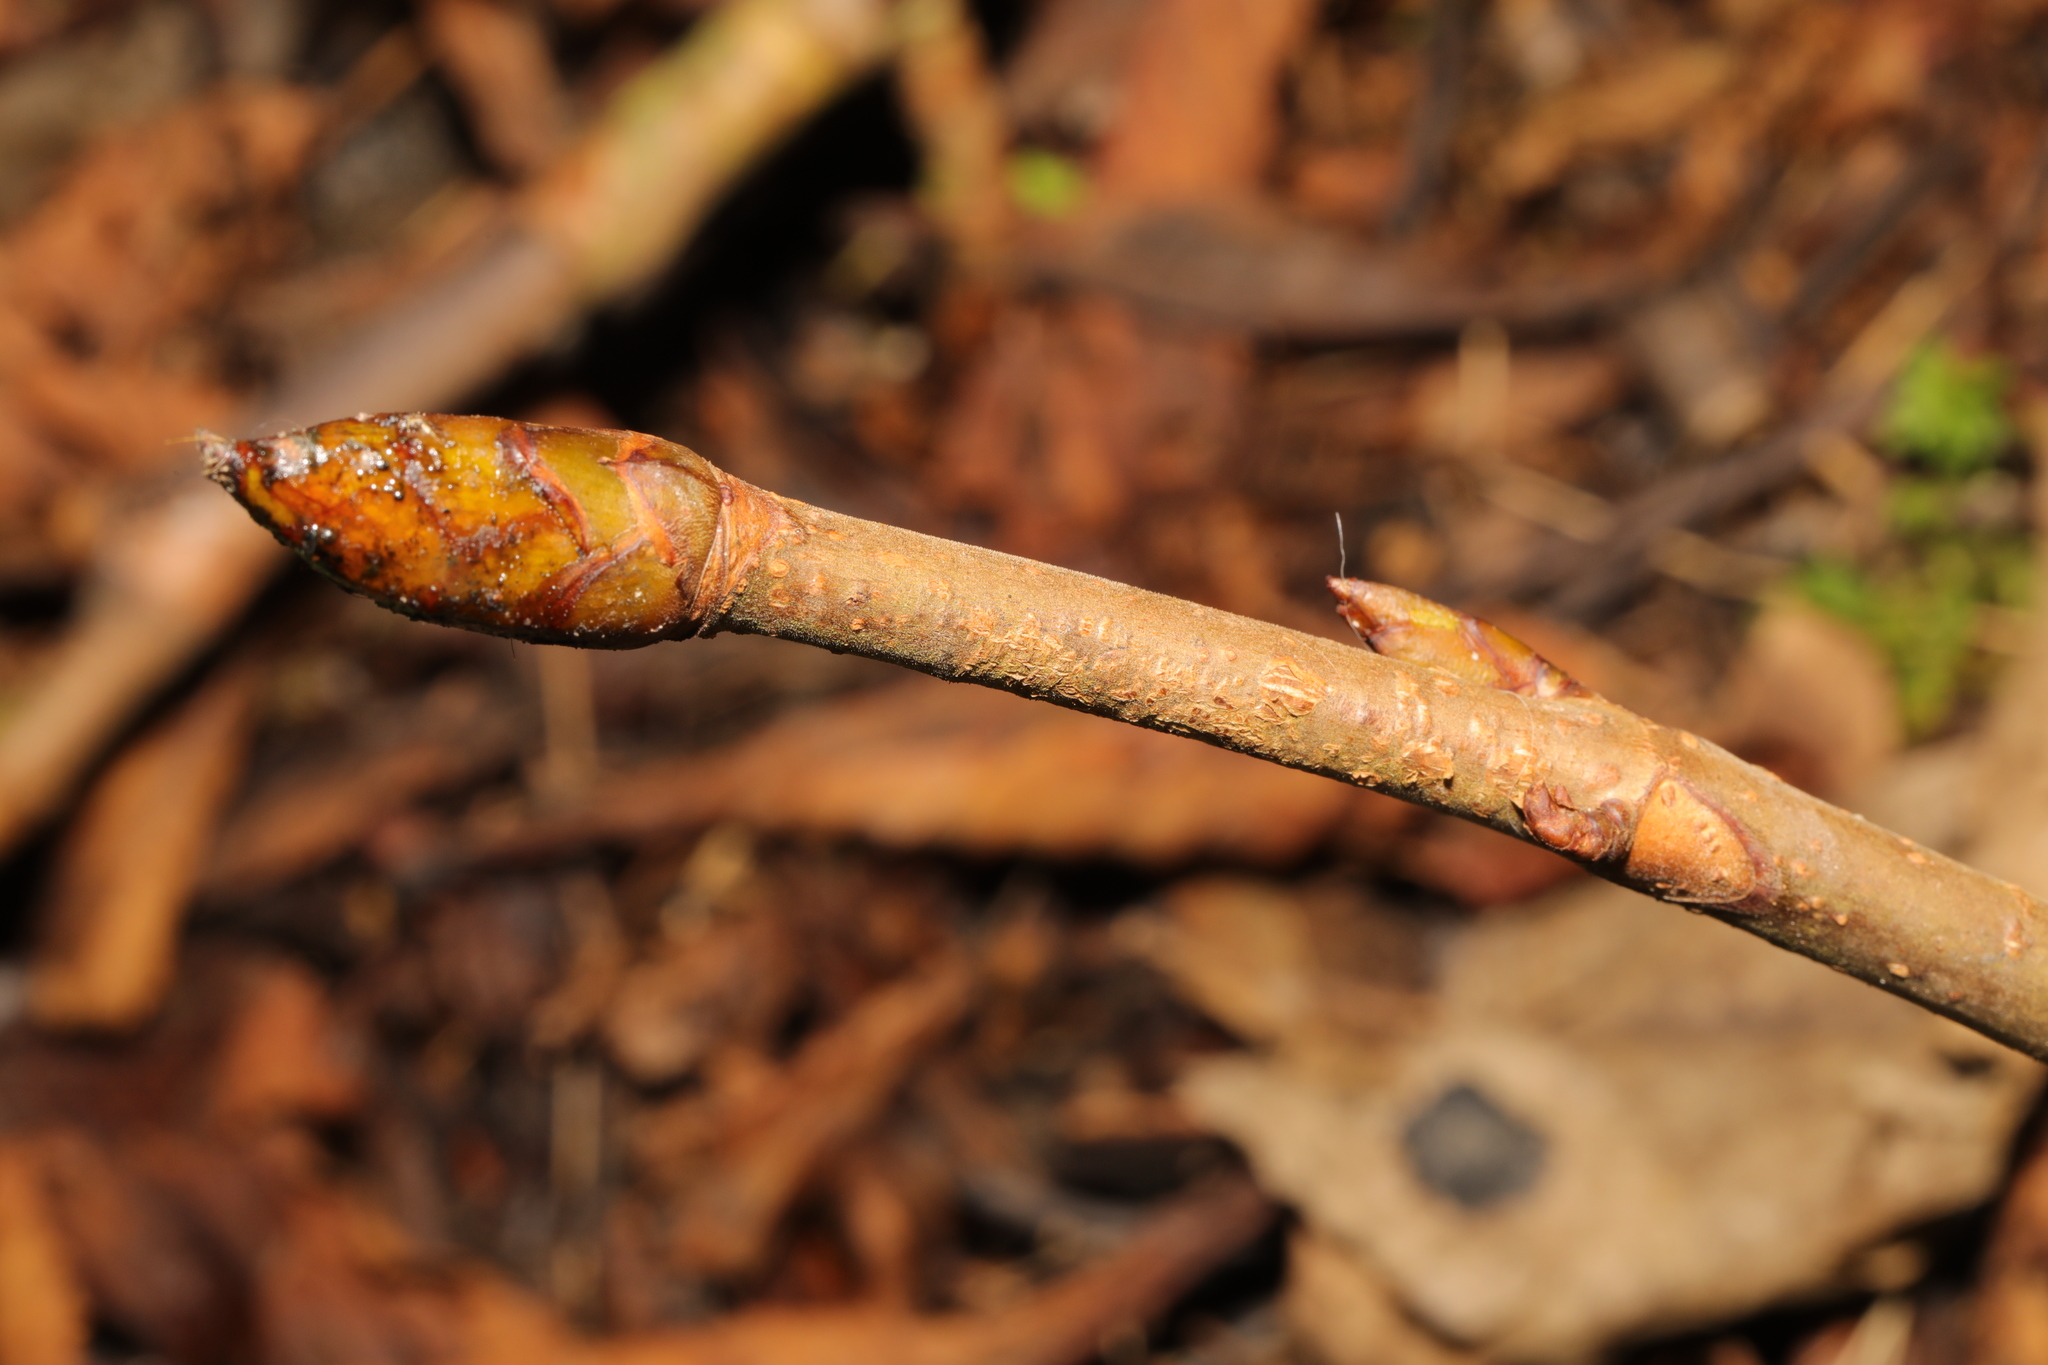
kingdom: Plantae
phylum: Tracheophyta
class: Magnoliopsida
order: Sapindales
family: Sapindaceae
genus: Aesculus
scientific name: Aesculus hippocastanum
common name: Horse-chestnut
